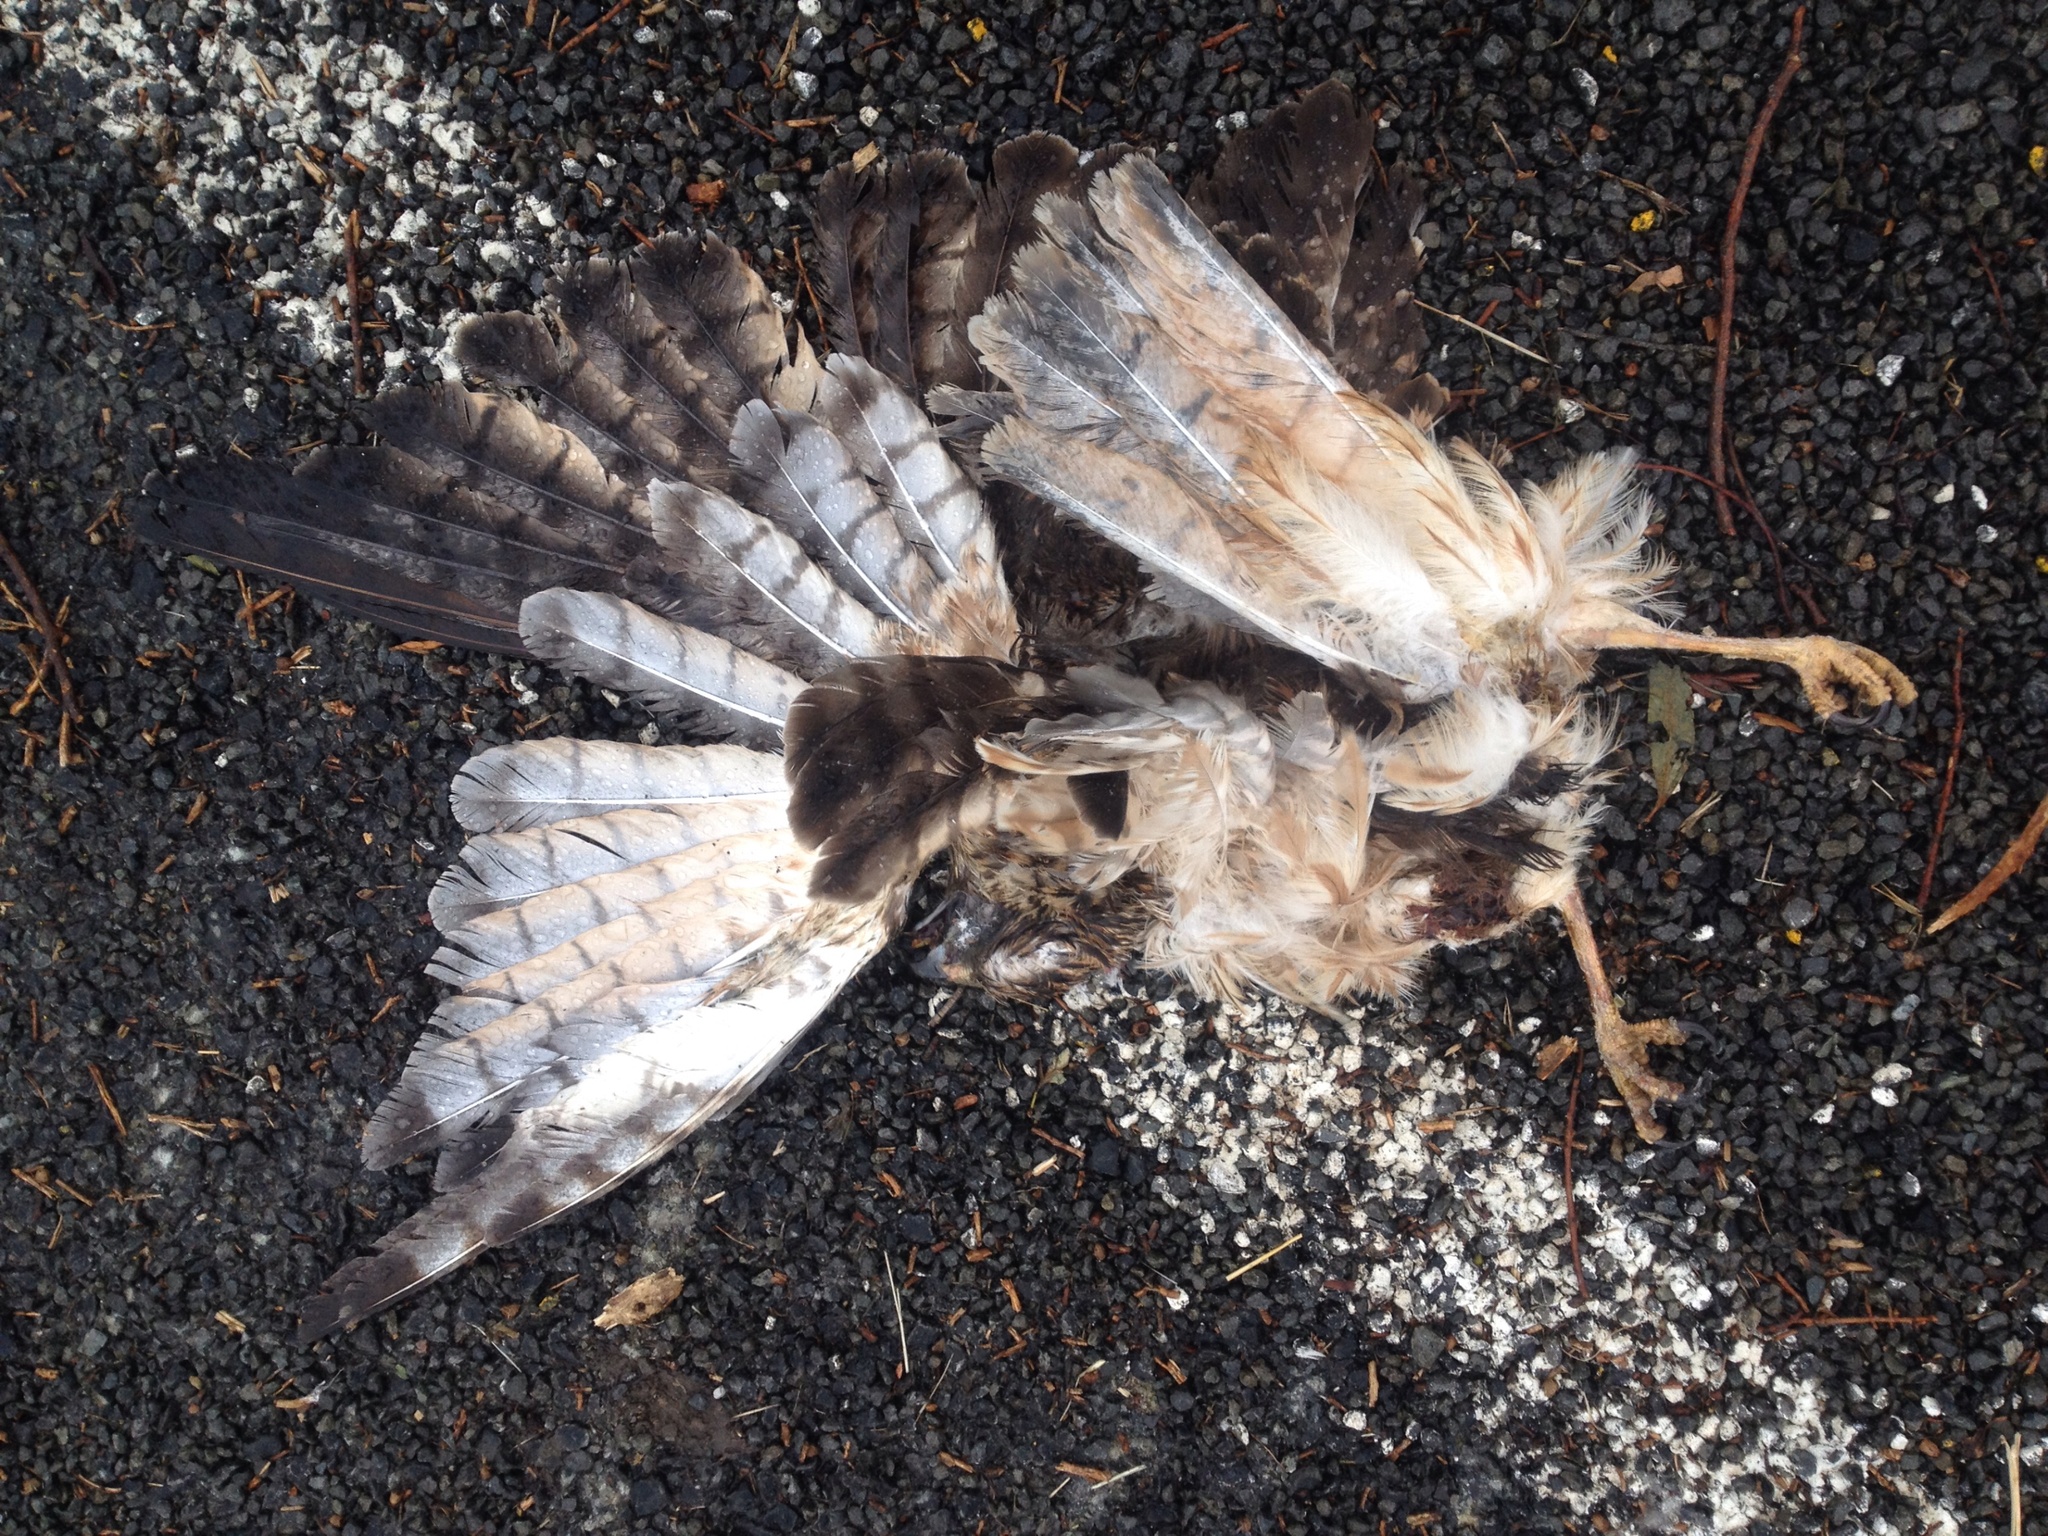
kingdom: Animalia
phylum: Chordata
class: Aves
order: Accipitriformes
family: Accipitridae
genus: Circus
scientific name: Circus approximans
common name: Swamp harrier
